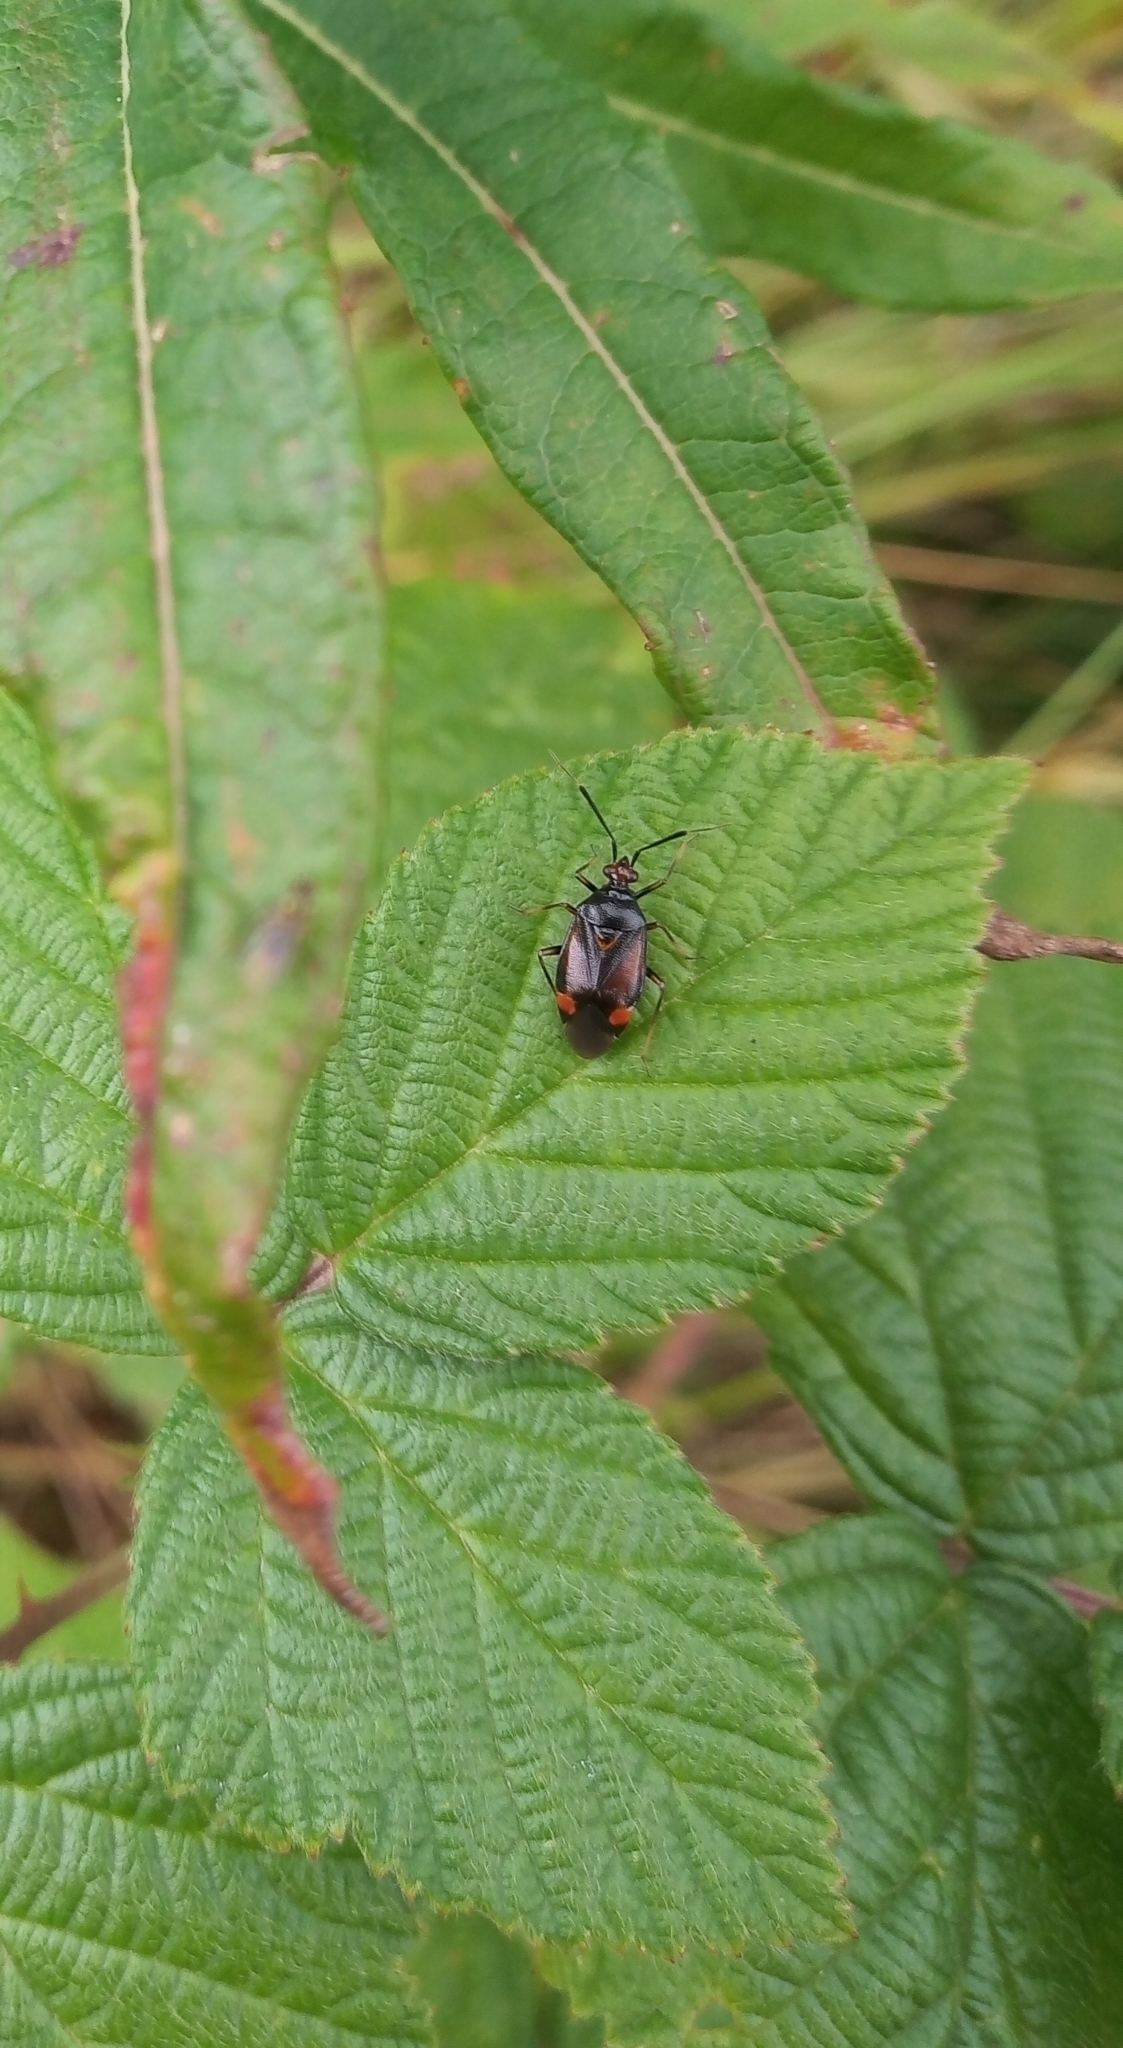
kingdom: Animalia
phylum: Arthropoda
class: Insecta
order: Hemiptera
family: Miridae
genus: Deraeocoris
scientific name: Deraeocoris ruber
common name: Plant bug
